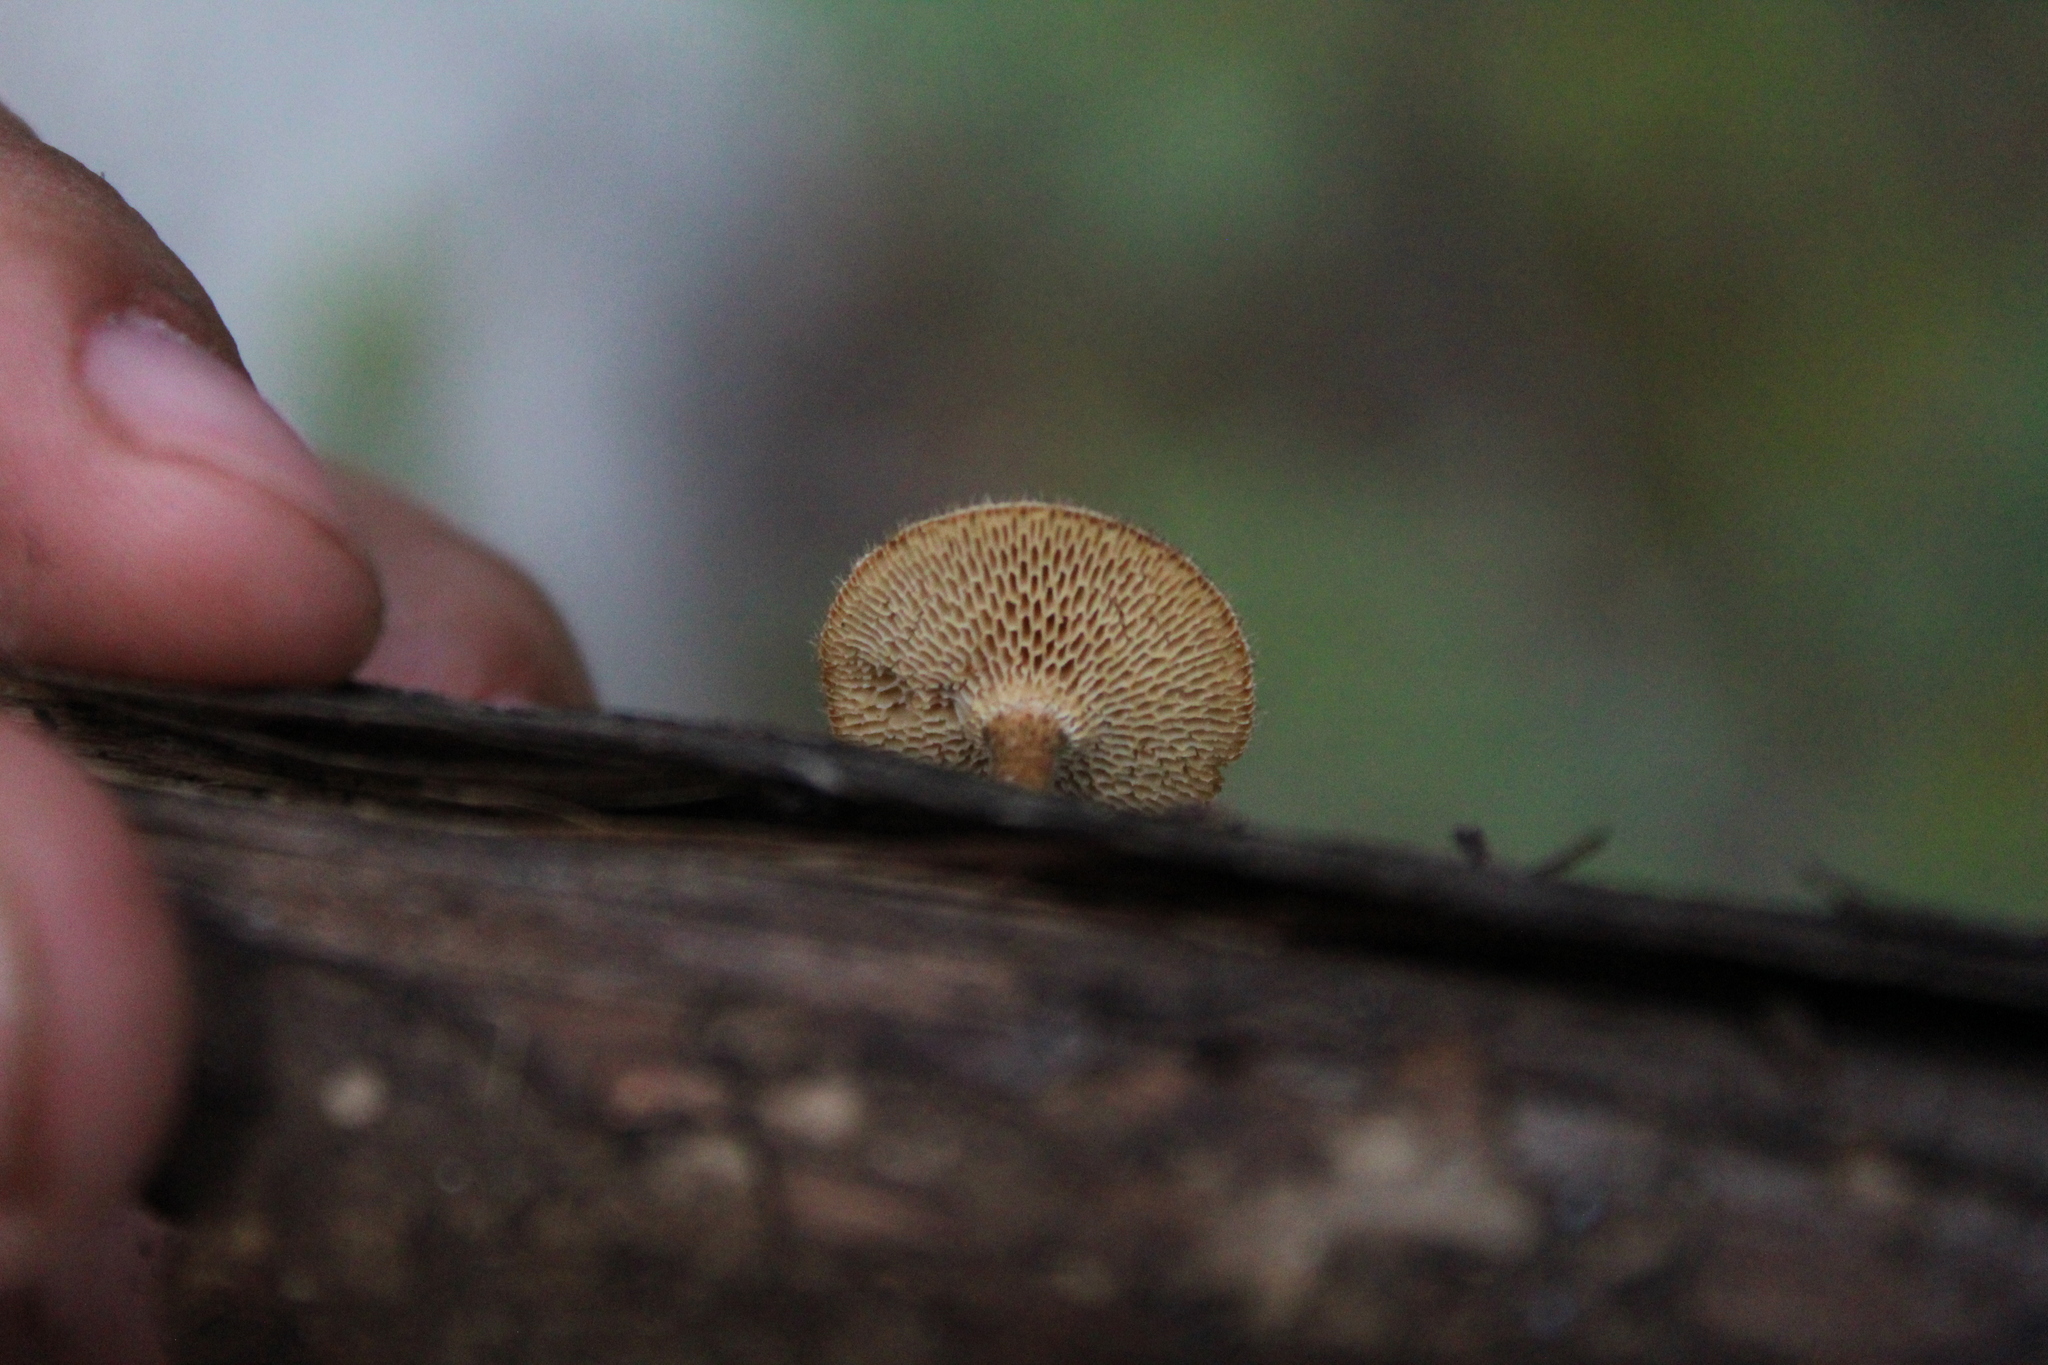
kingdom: Fungi
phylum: Basidiomycota
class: Agaricomycetes
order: Polyporales
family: Polyporaceae
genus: Lentinus
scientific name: Lentinus arcularius
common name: Spring polypore
